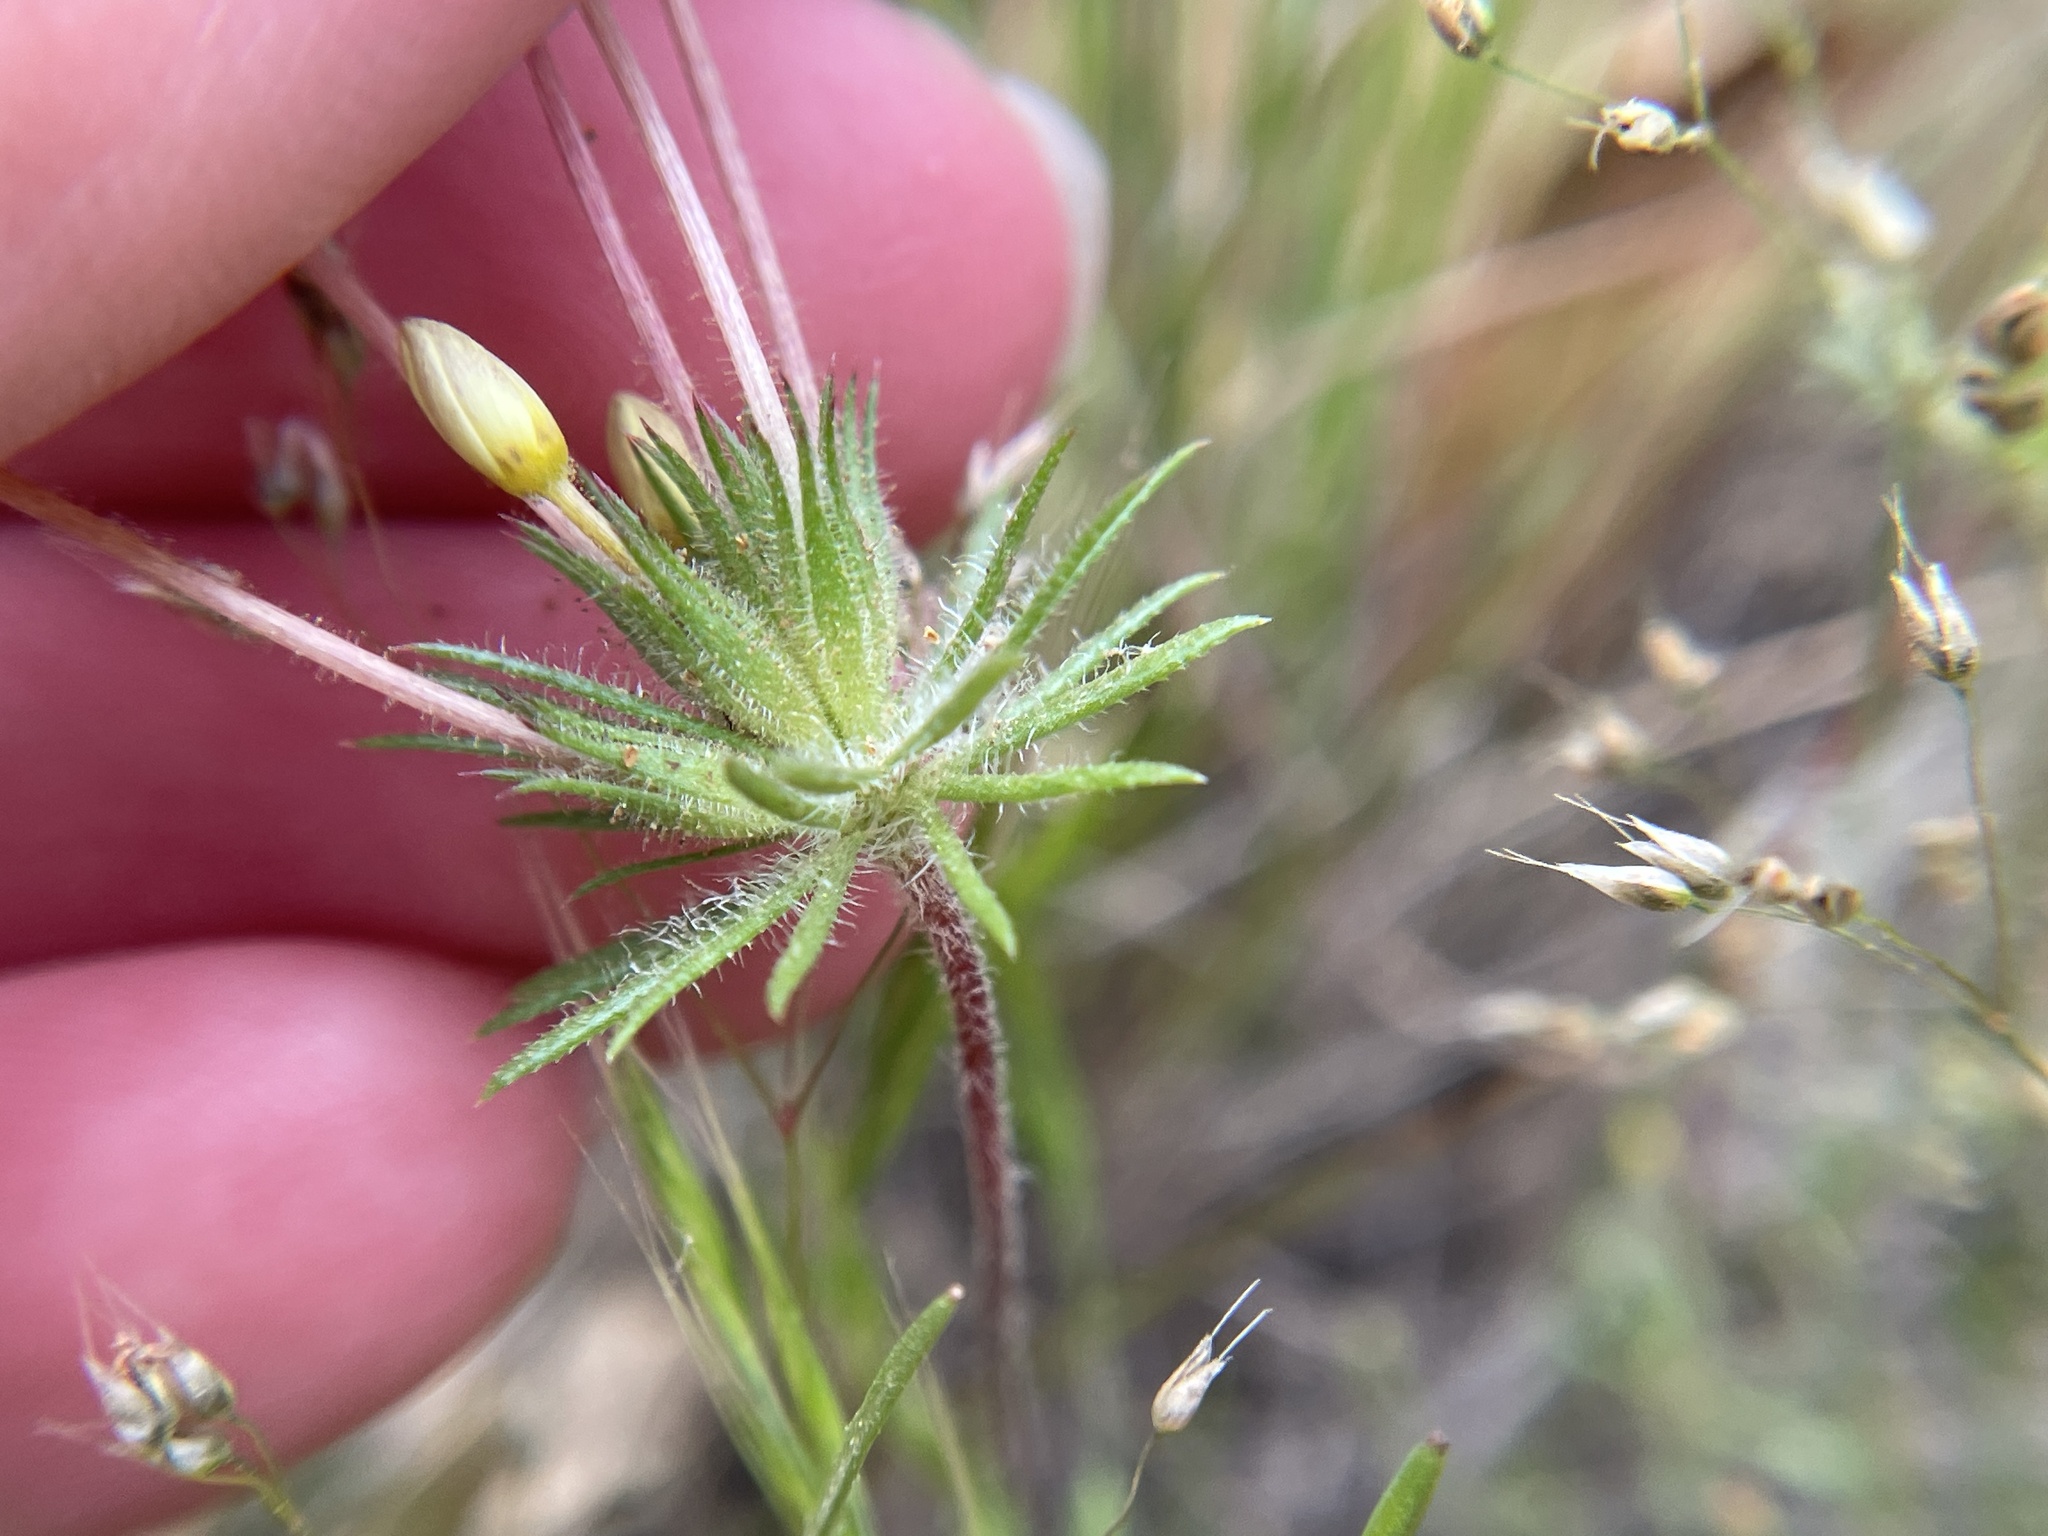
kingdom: Plantae
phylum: Tracheophyta
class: Magnoliopsida
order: Ericales
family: Polemoniaceae
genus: Leptosiphon
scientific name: Leptosiphon parviflorus
